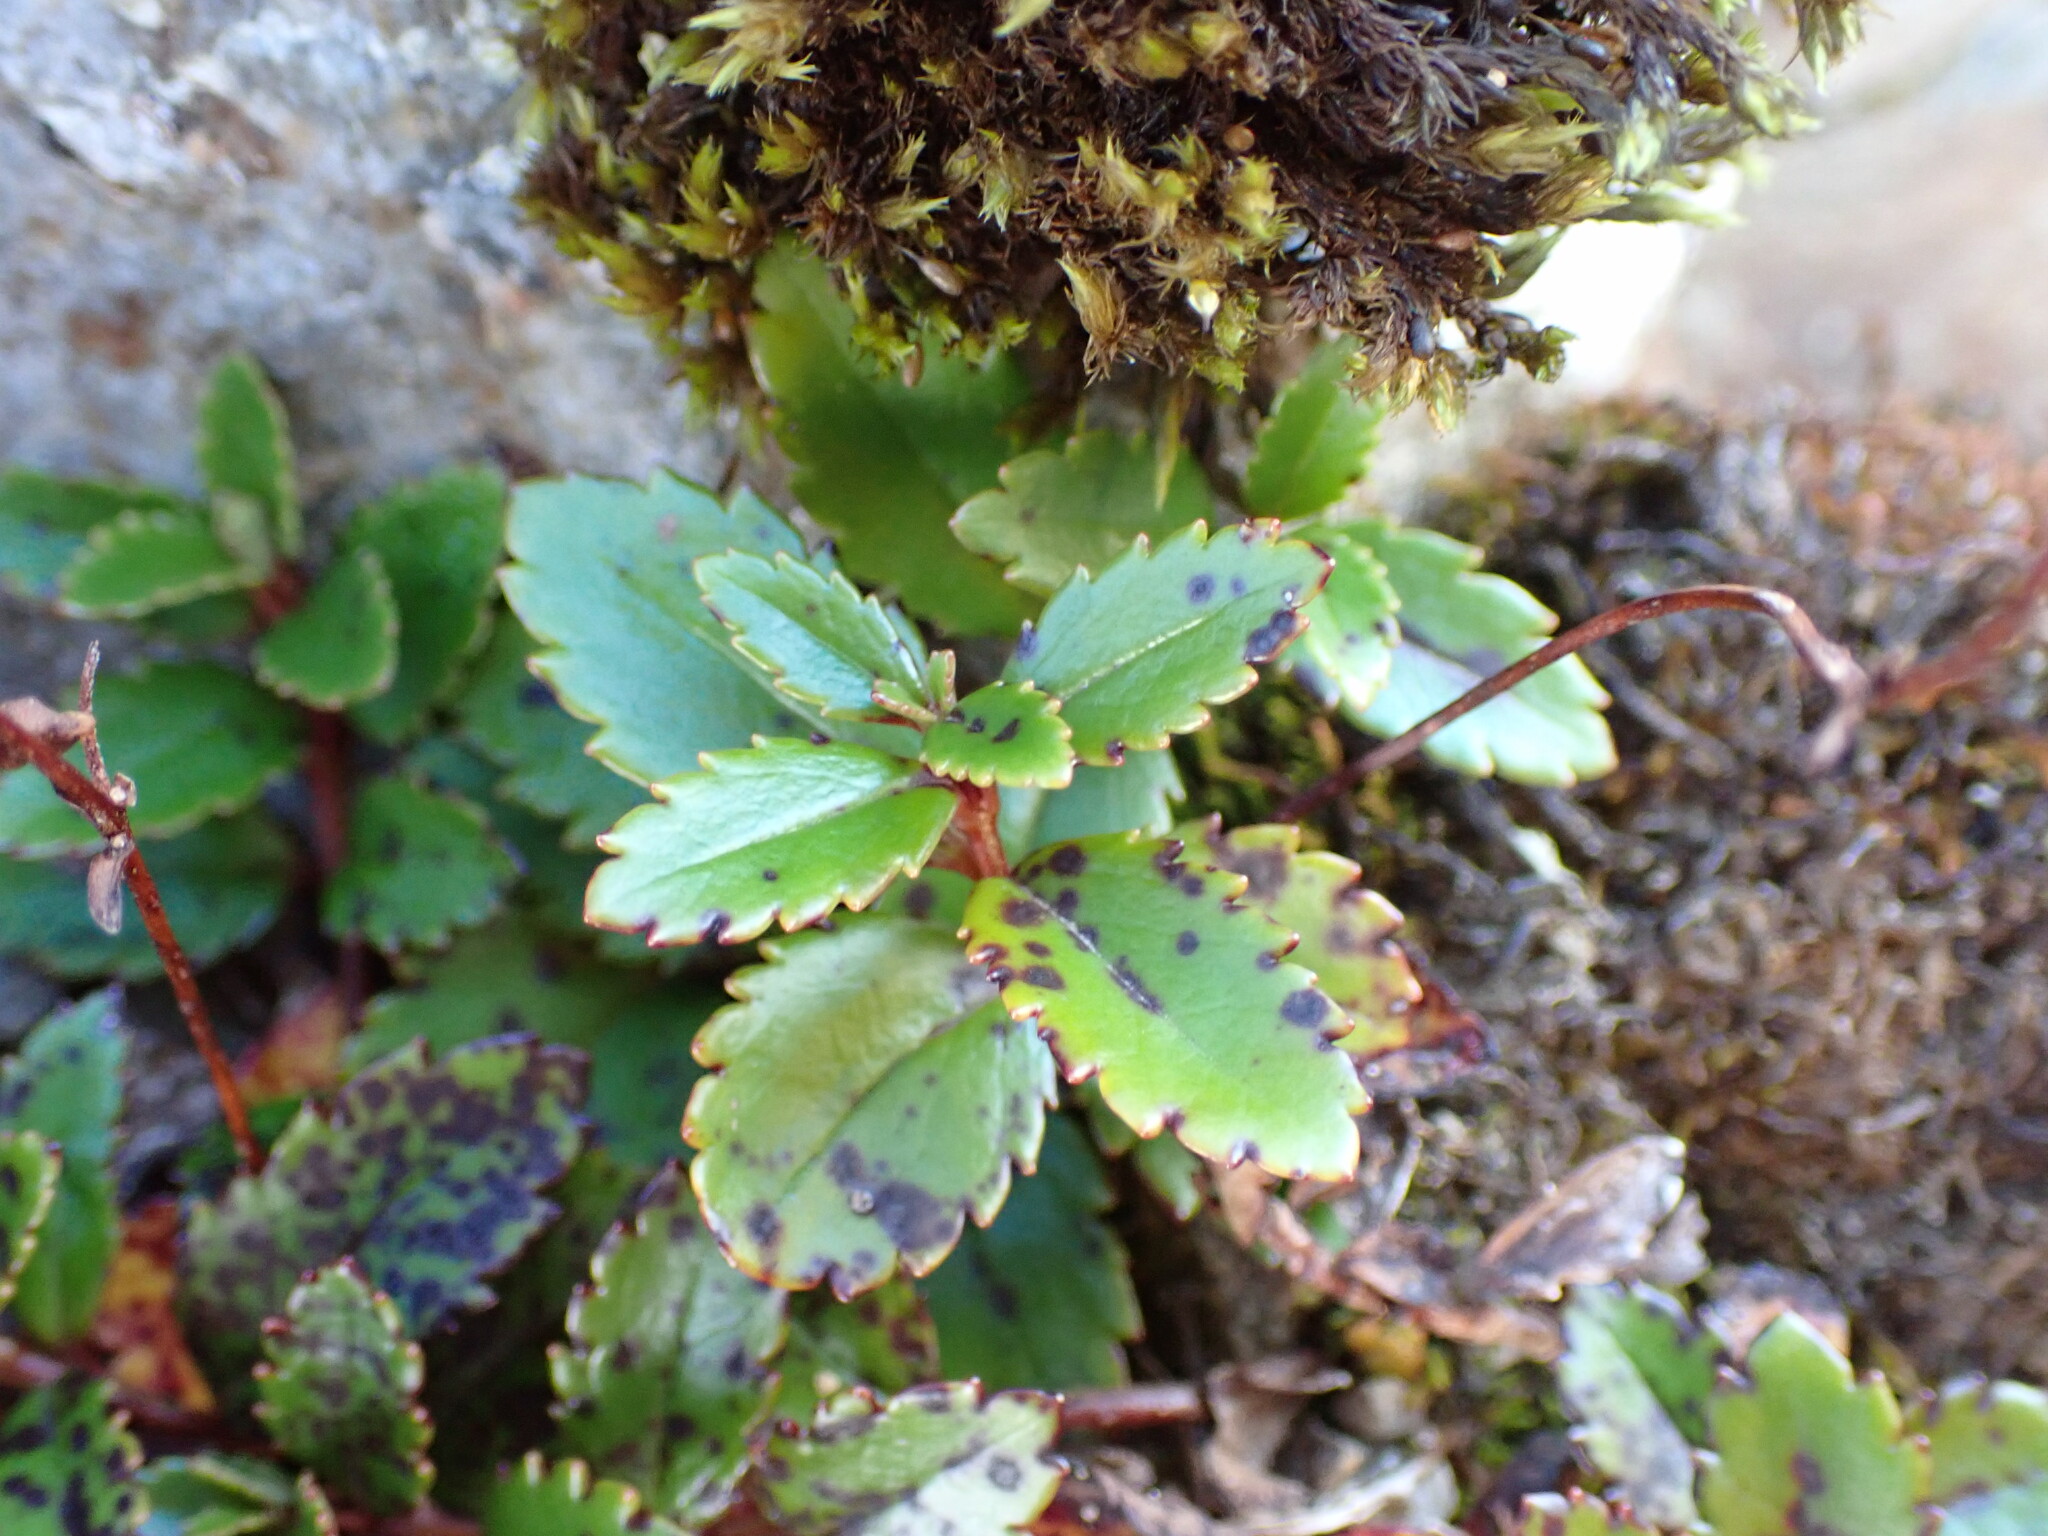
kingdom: Plantae
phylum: Tracheophyta
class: Magnoliopsida
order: Lamiales
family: Plantaginaceae
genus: Veronica
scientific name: Veronica lanceolata
